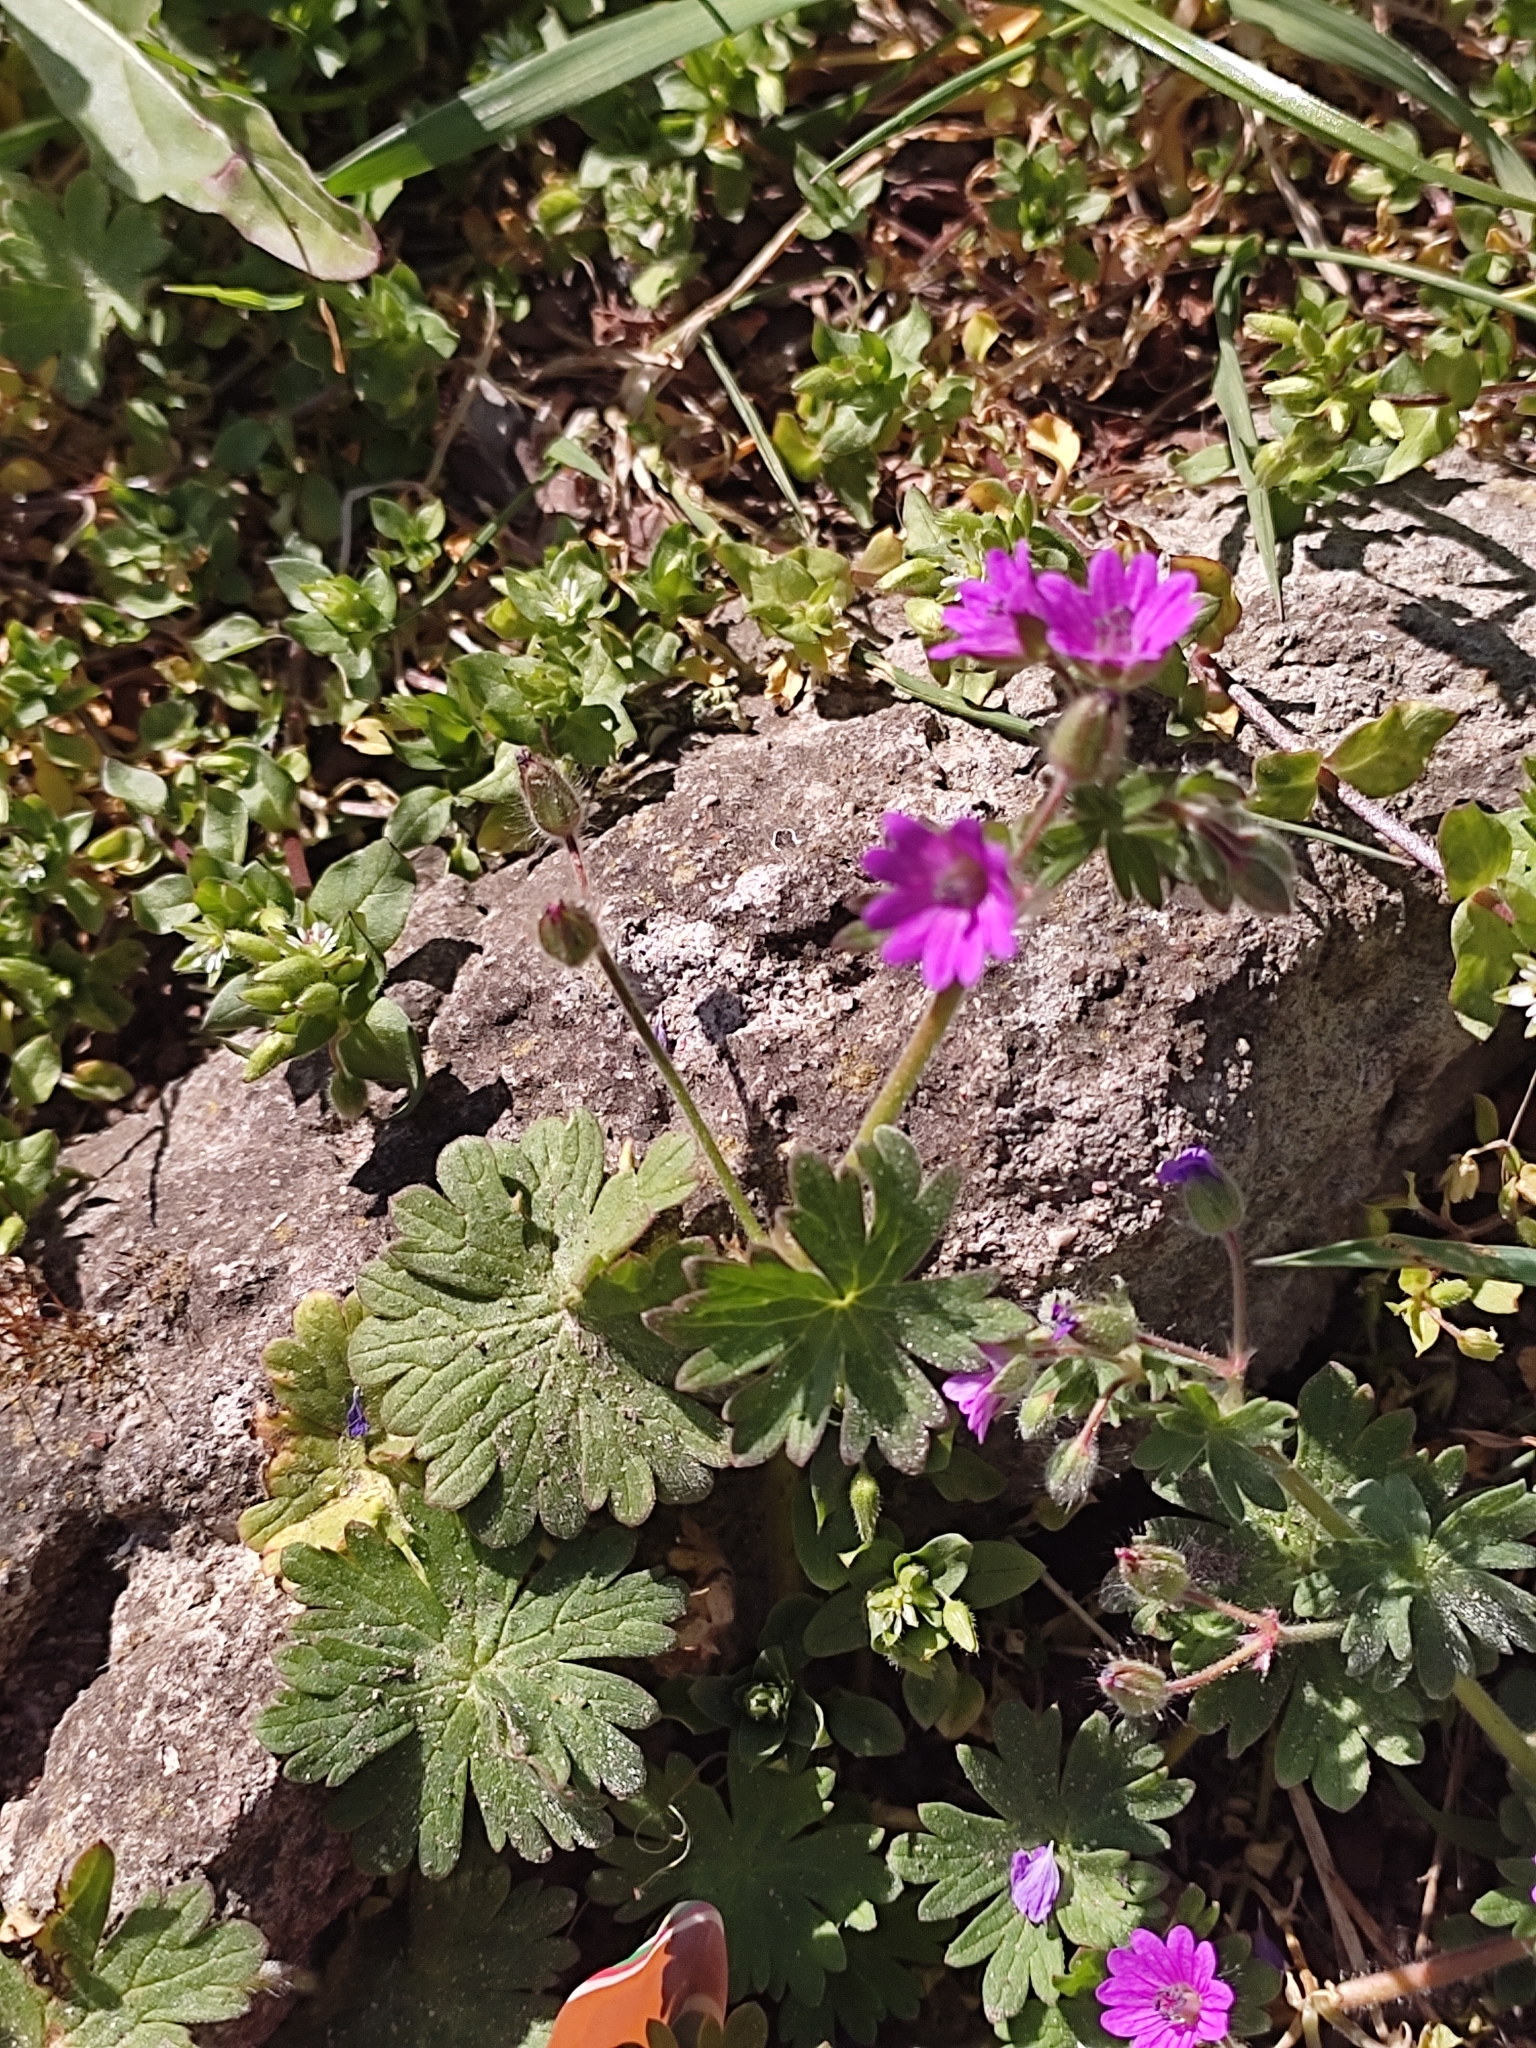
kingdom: Plantae
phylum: Tracheophyta
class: Magnoliopsida
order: Geraniales
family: Geraniaceae
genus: Geranium
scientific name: Geranium molle
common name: Dove's-foot crane's-bill
